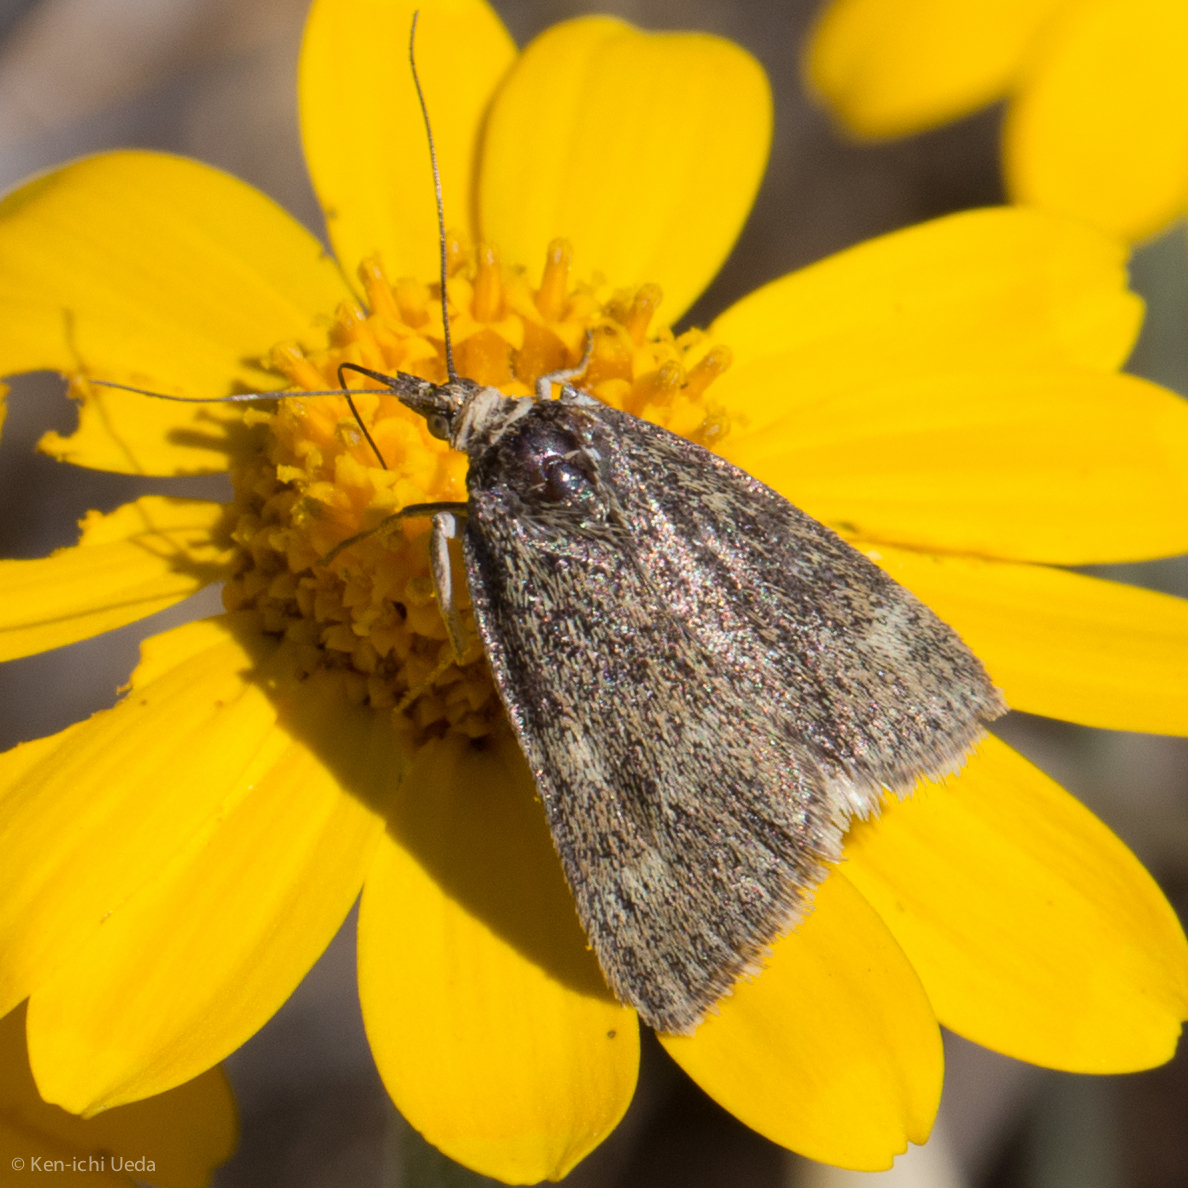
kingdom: Animalia
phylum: Arthropoda
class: Insecta
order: Lepidoptera
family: Crambidae
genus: Pyrausta
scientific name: Pyrausta unifascialis
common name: One-banded pyrausta
